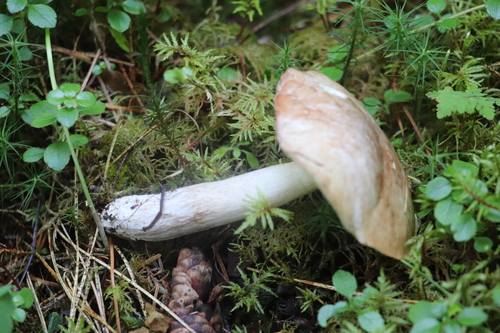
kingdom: Fungi
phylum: Basidiomycota
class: Agaricomycetes
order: Boletales
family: Suillaceae
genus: Suillus
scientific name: Suillus
